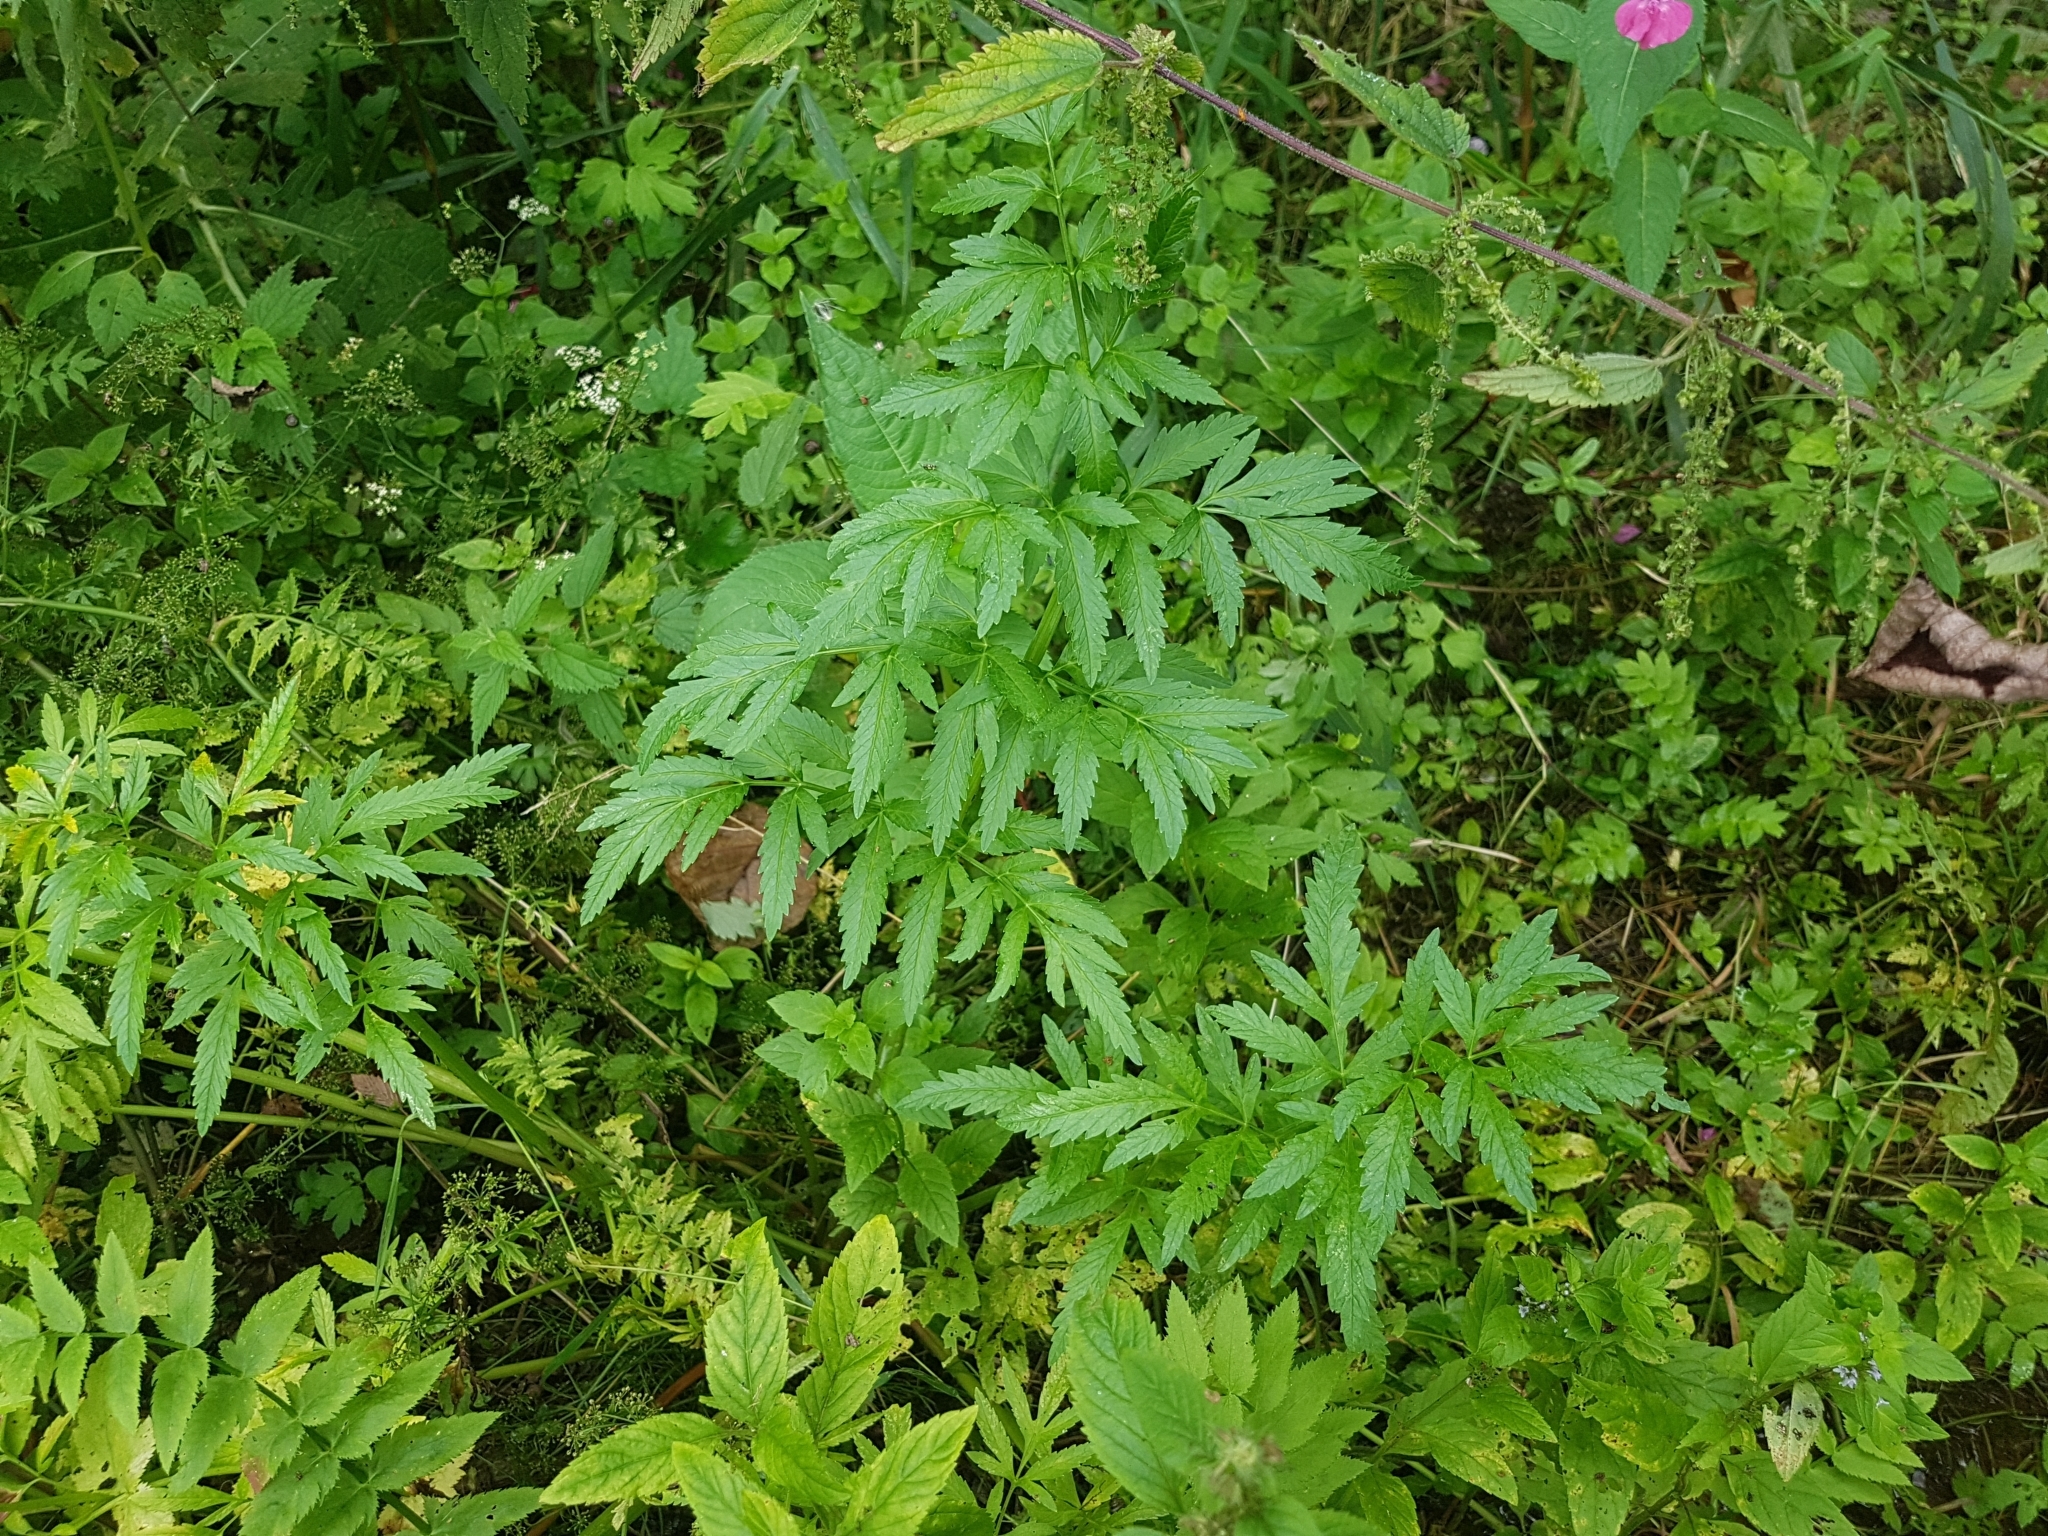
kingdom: Plantae
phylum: Tracheophyta
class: Magnoliopsida
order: Apiales
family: Apiaceae
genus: Cicuta
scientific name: Cicuta virosa
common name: Cowbane
